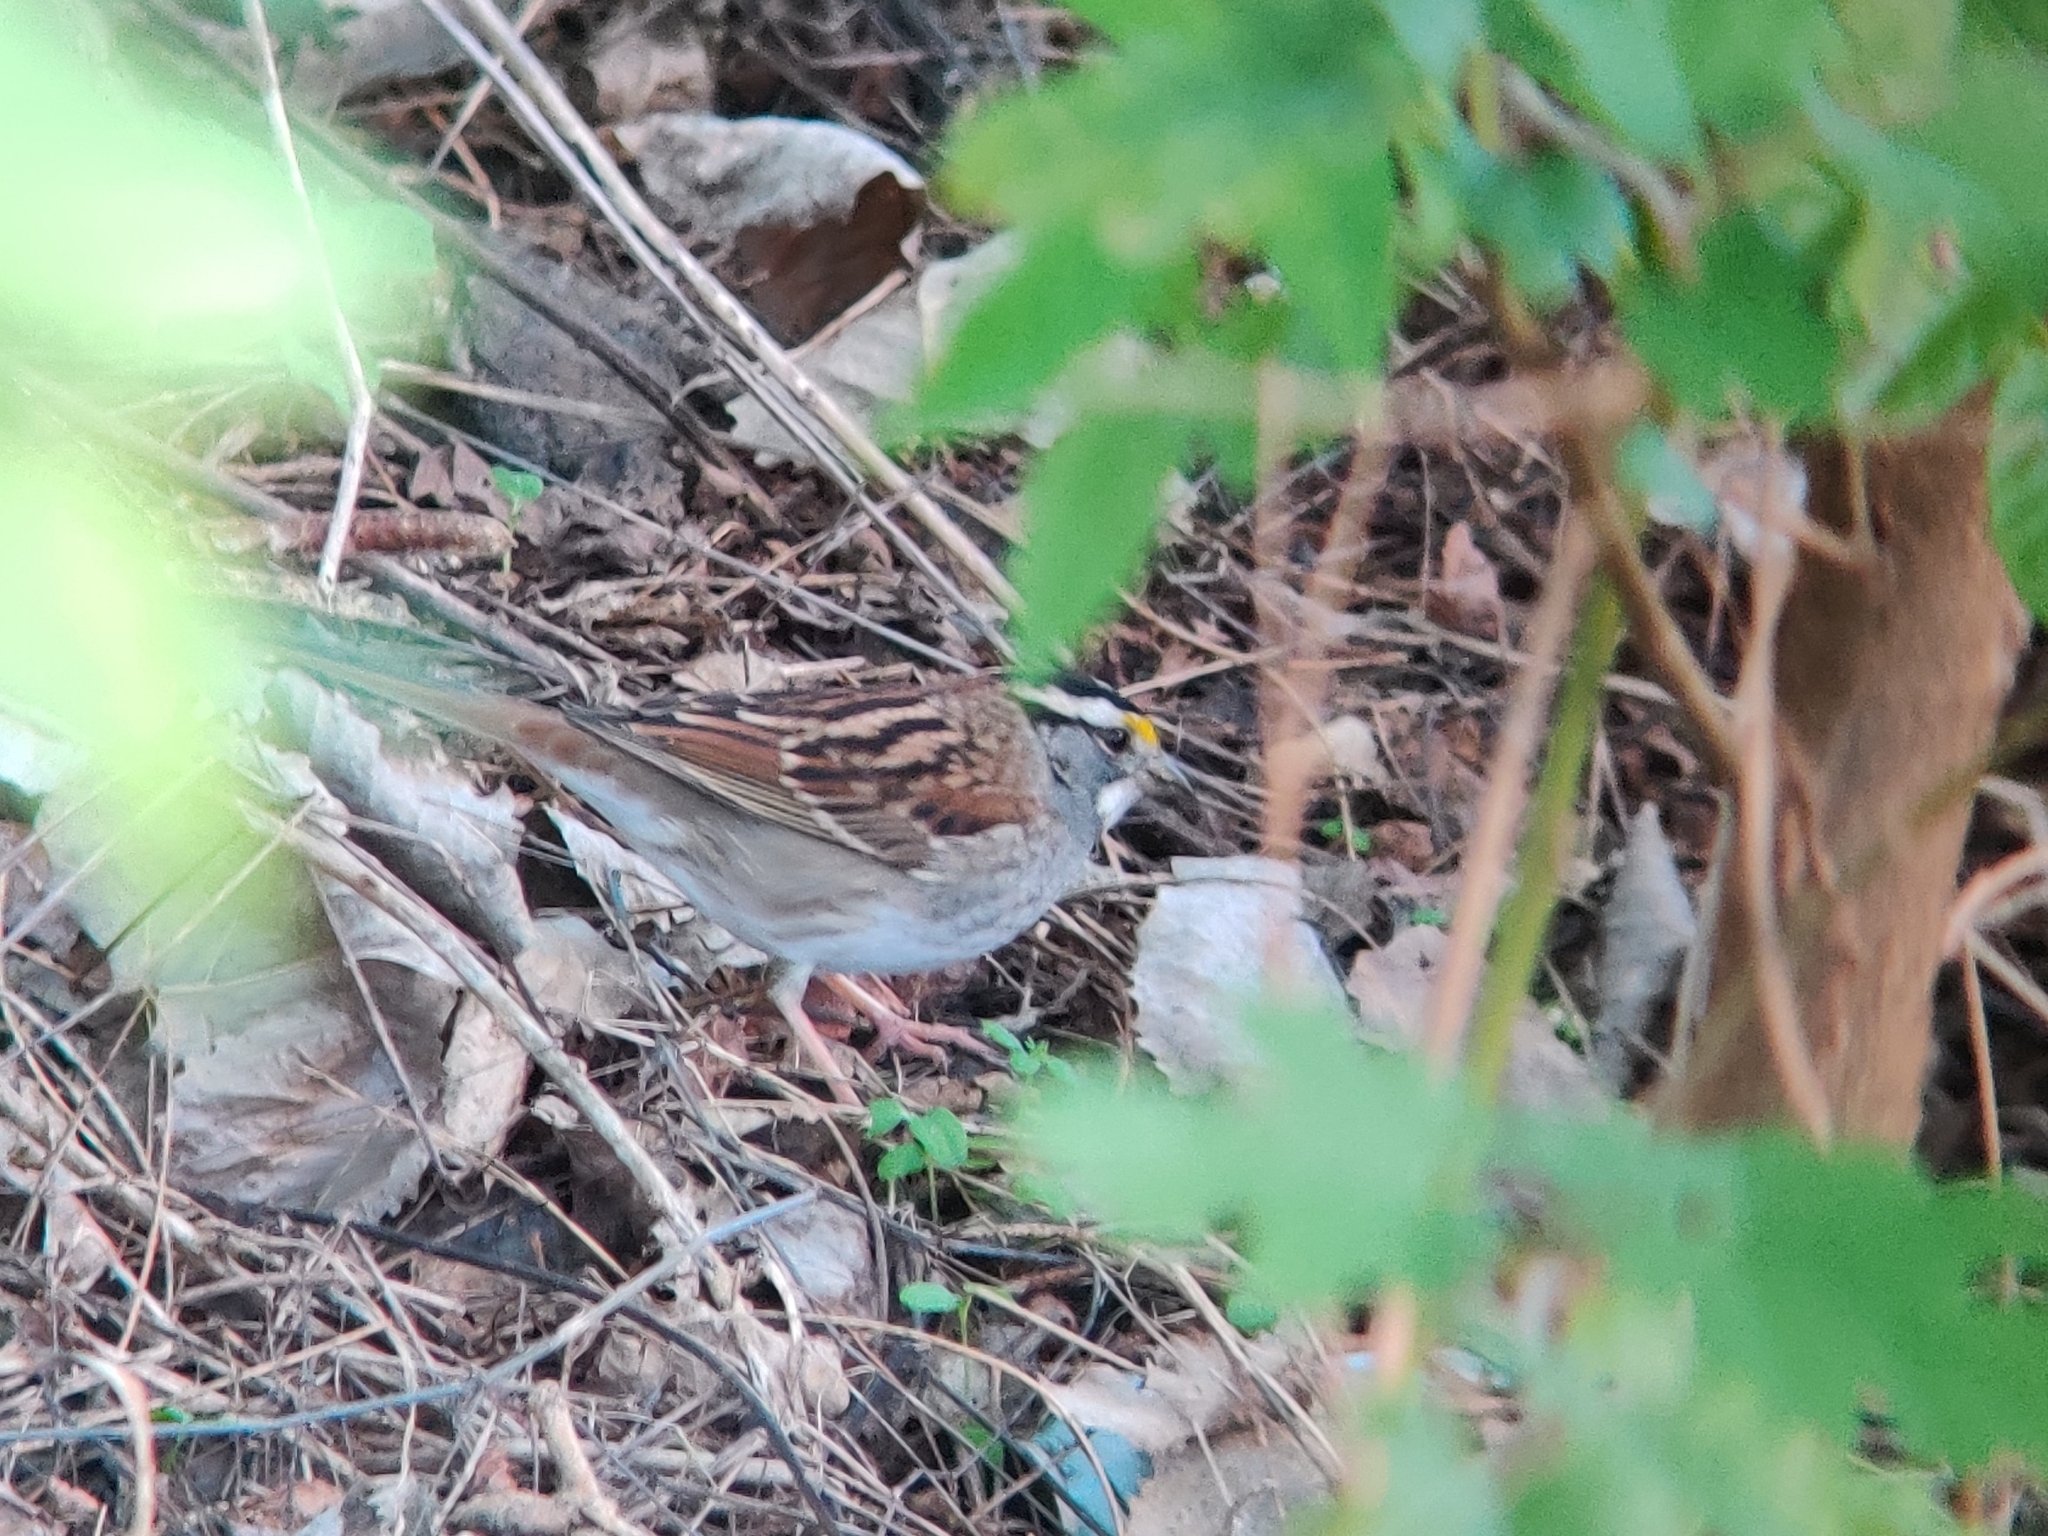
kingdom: Animalia
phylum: Chordata
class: Aves
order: Passeriformes
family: Passerellidae
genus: Zonotrichia
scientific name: Zonotrichia albicollis
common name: White-throated sparrow
